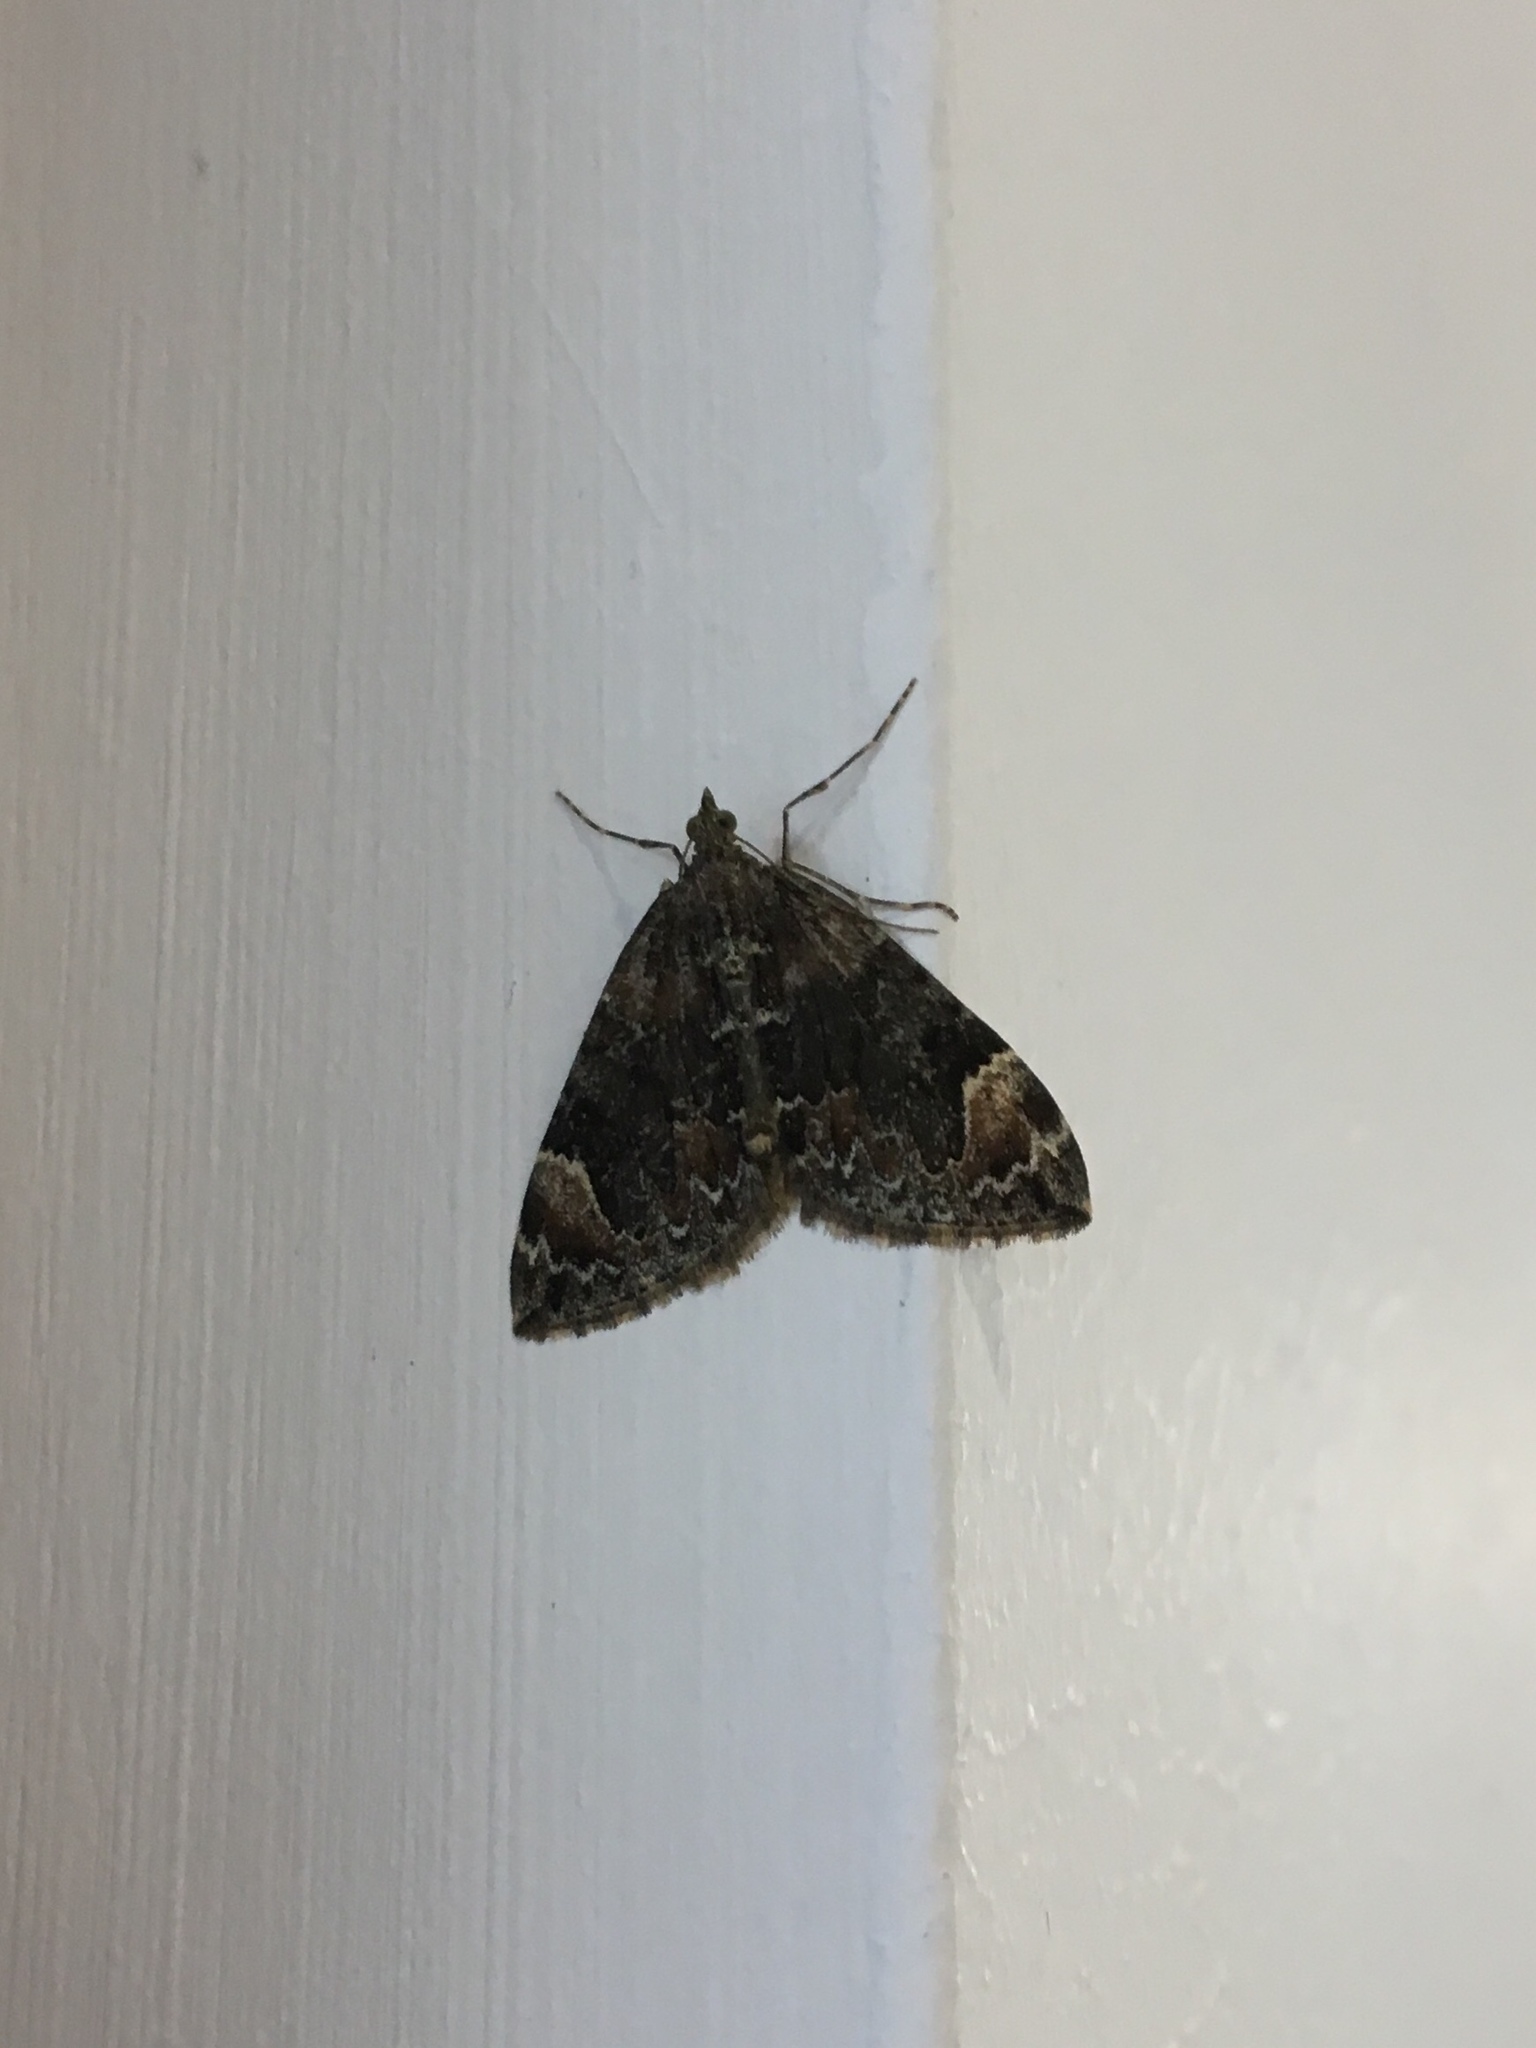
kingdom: Animalia
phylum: Arthropoda
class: Insecta
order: Lepidoptera
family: Geometridae
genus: Dysstroma
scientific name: Dysstroma citrata
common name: Dark marbled carpet
